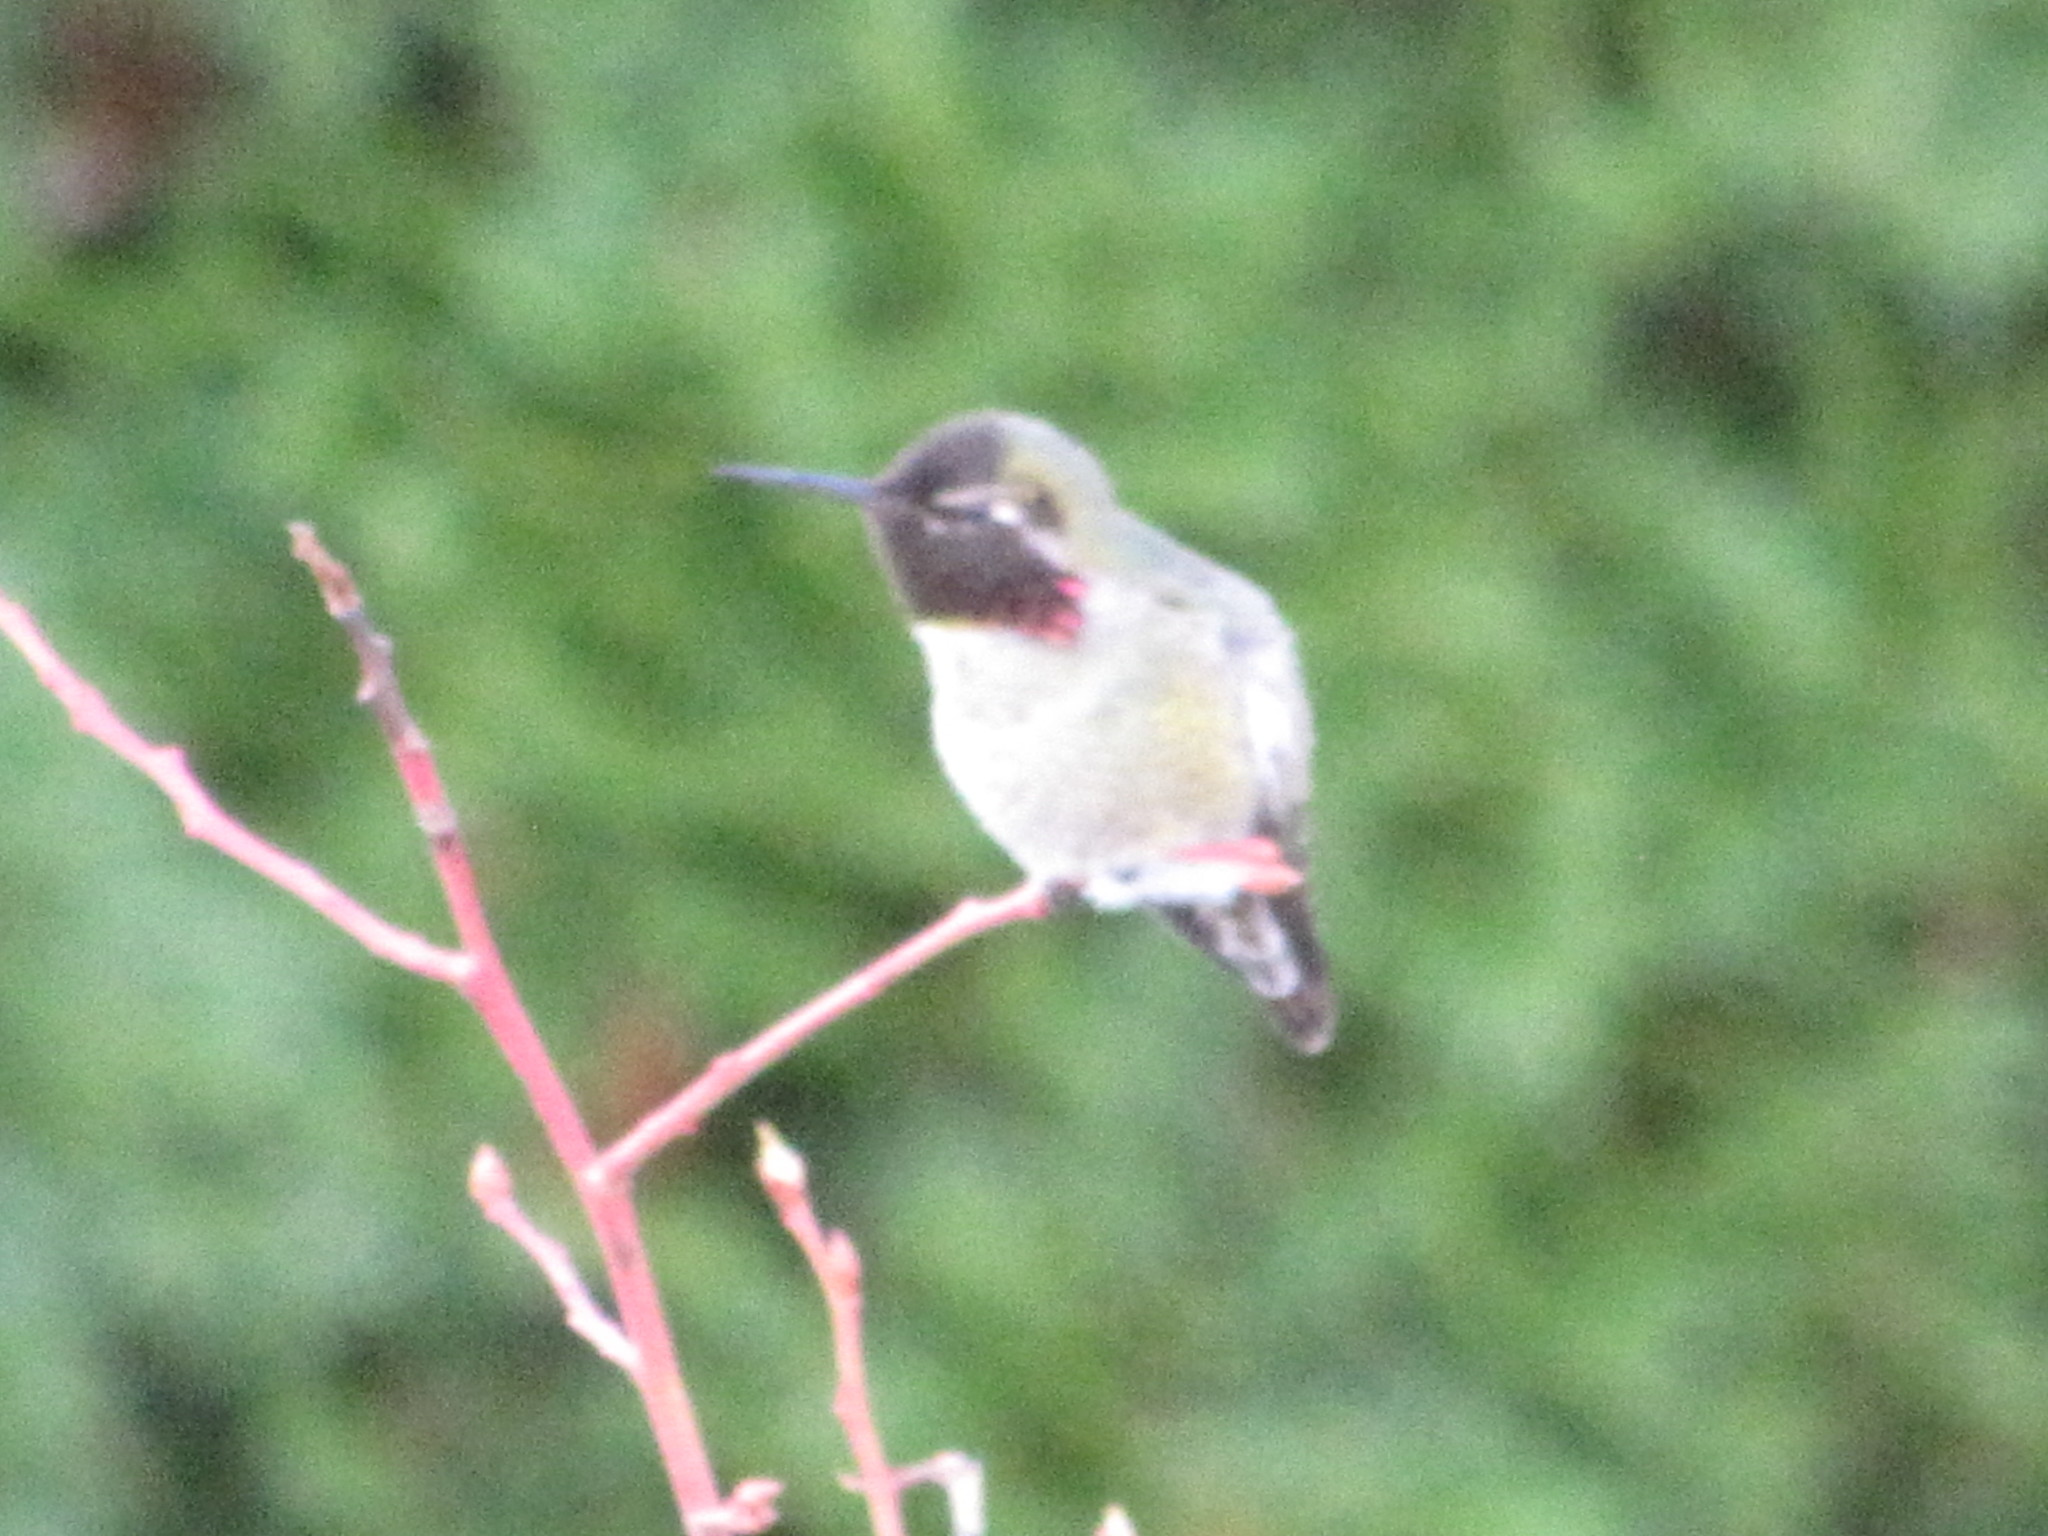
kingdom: Animalia
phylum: Chordata
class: Aves
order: Apodiformes
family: Trochilidae
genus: Calypte
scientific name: Calypte anna
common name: Anna's hummingbird
